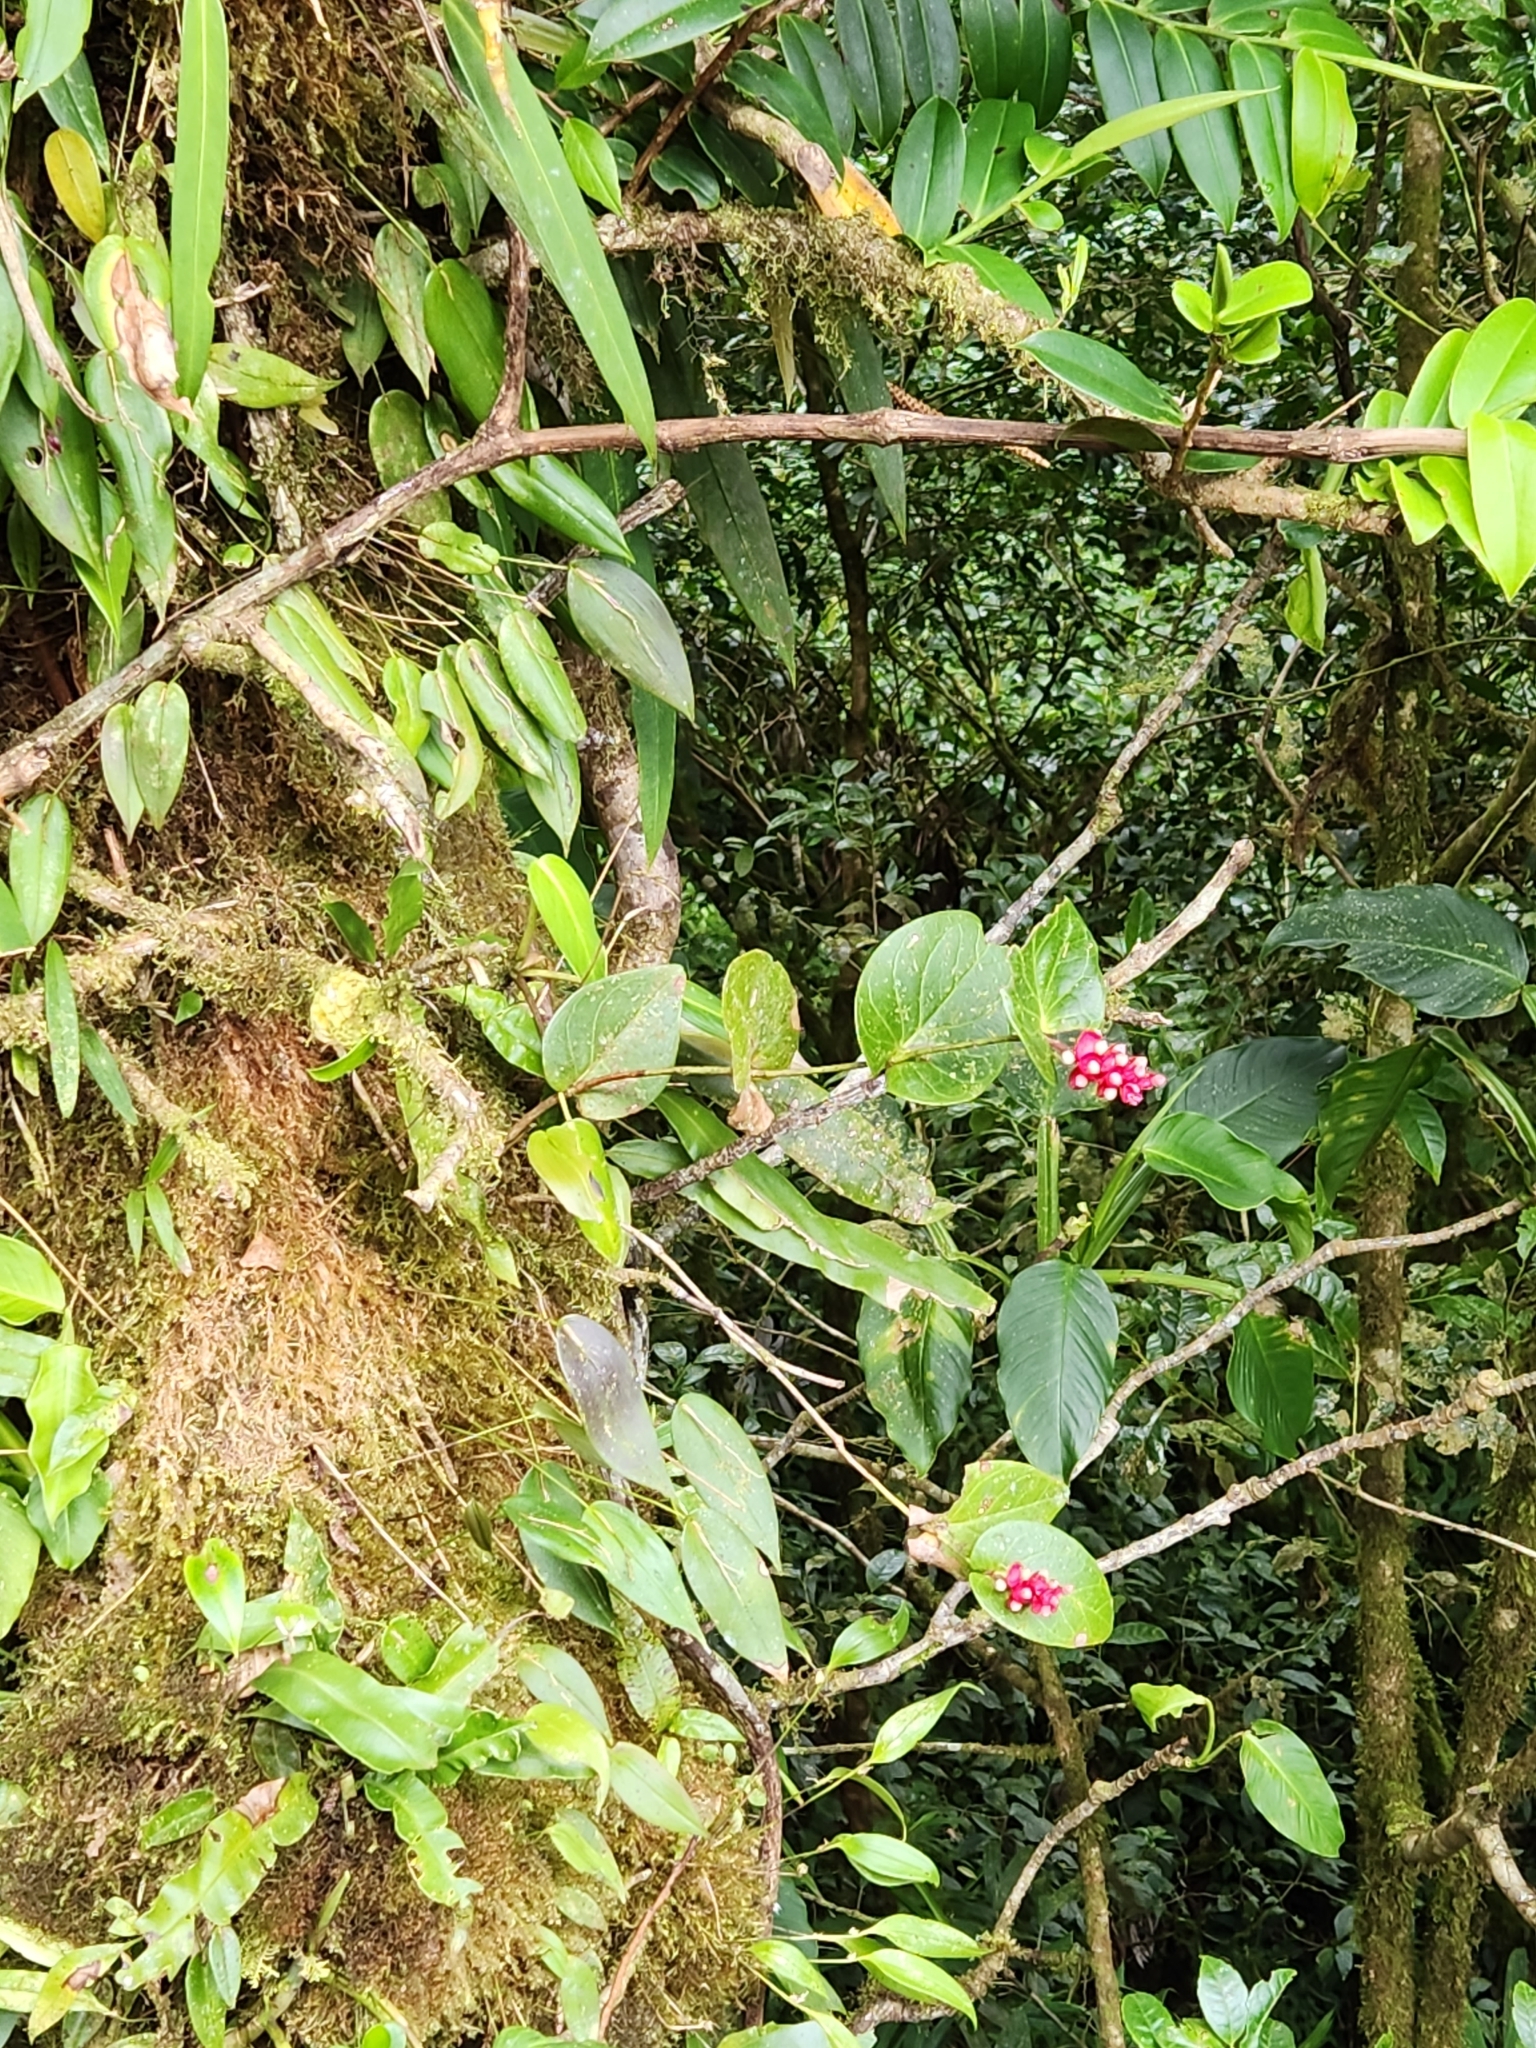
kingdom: Plantae
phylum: Tracheophyta
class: Magnoliopsida
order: Ericales
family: Ericaceae
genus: Cavendishia
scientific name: Cavendishia complectens
